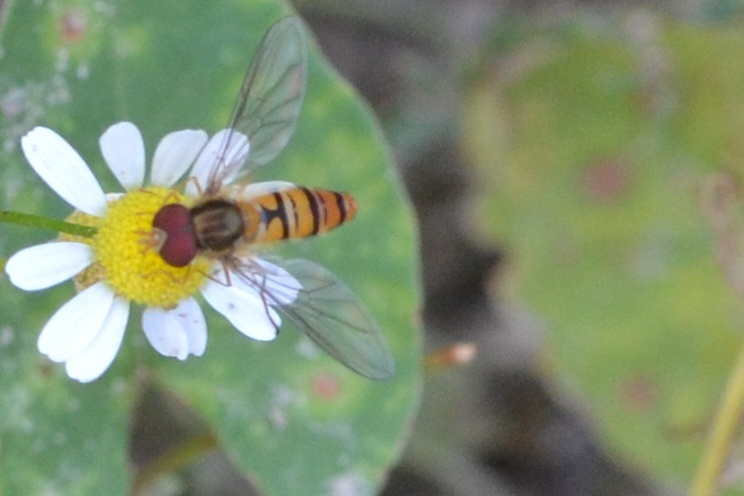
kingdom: Animalia
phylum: Arthropoda
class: Insecta
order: Diptera
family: Syrphidae
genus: Episyrphus
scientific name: Episyrphus balteatus
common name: Marmalade hoverfly
